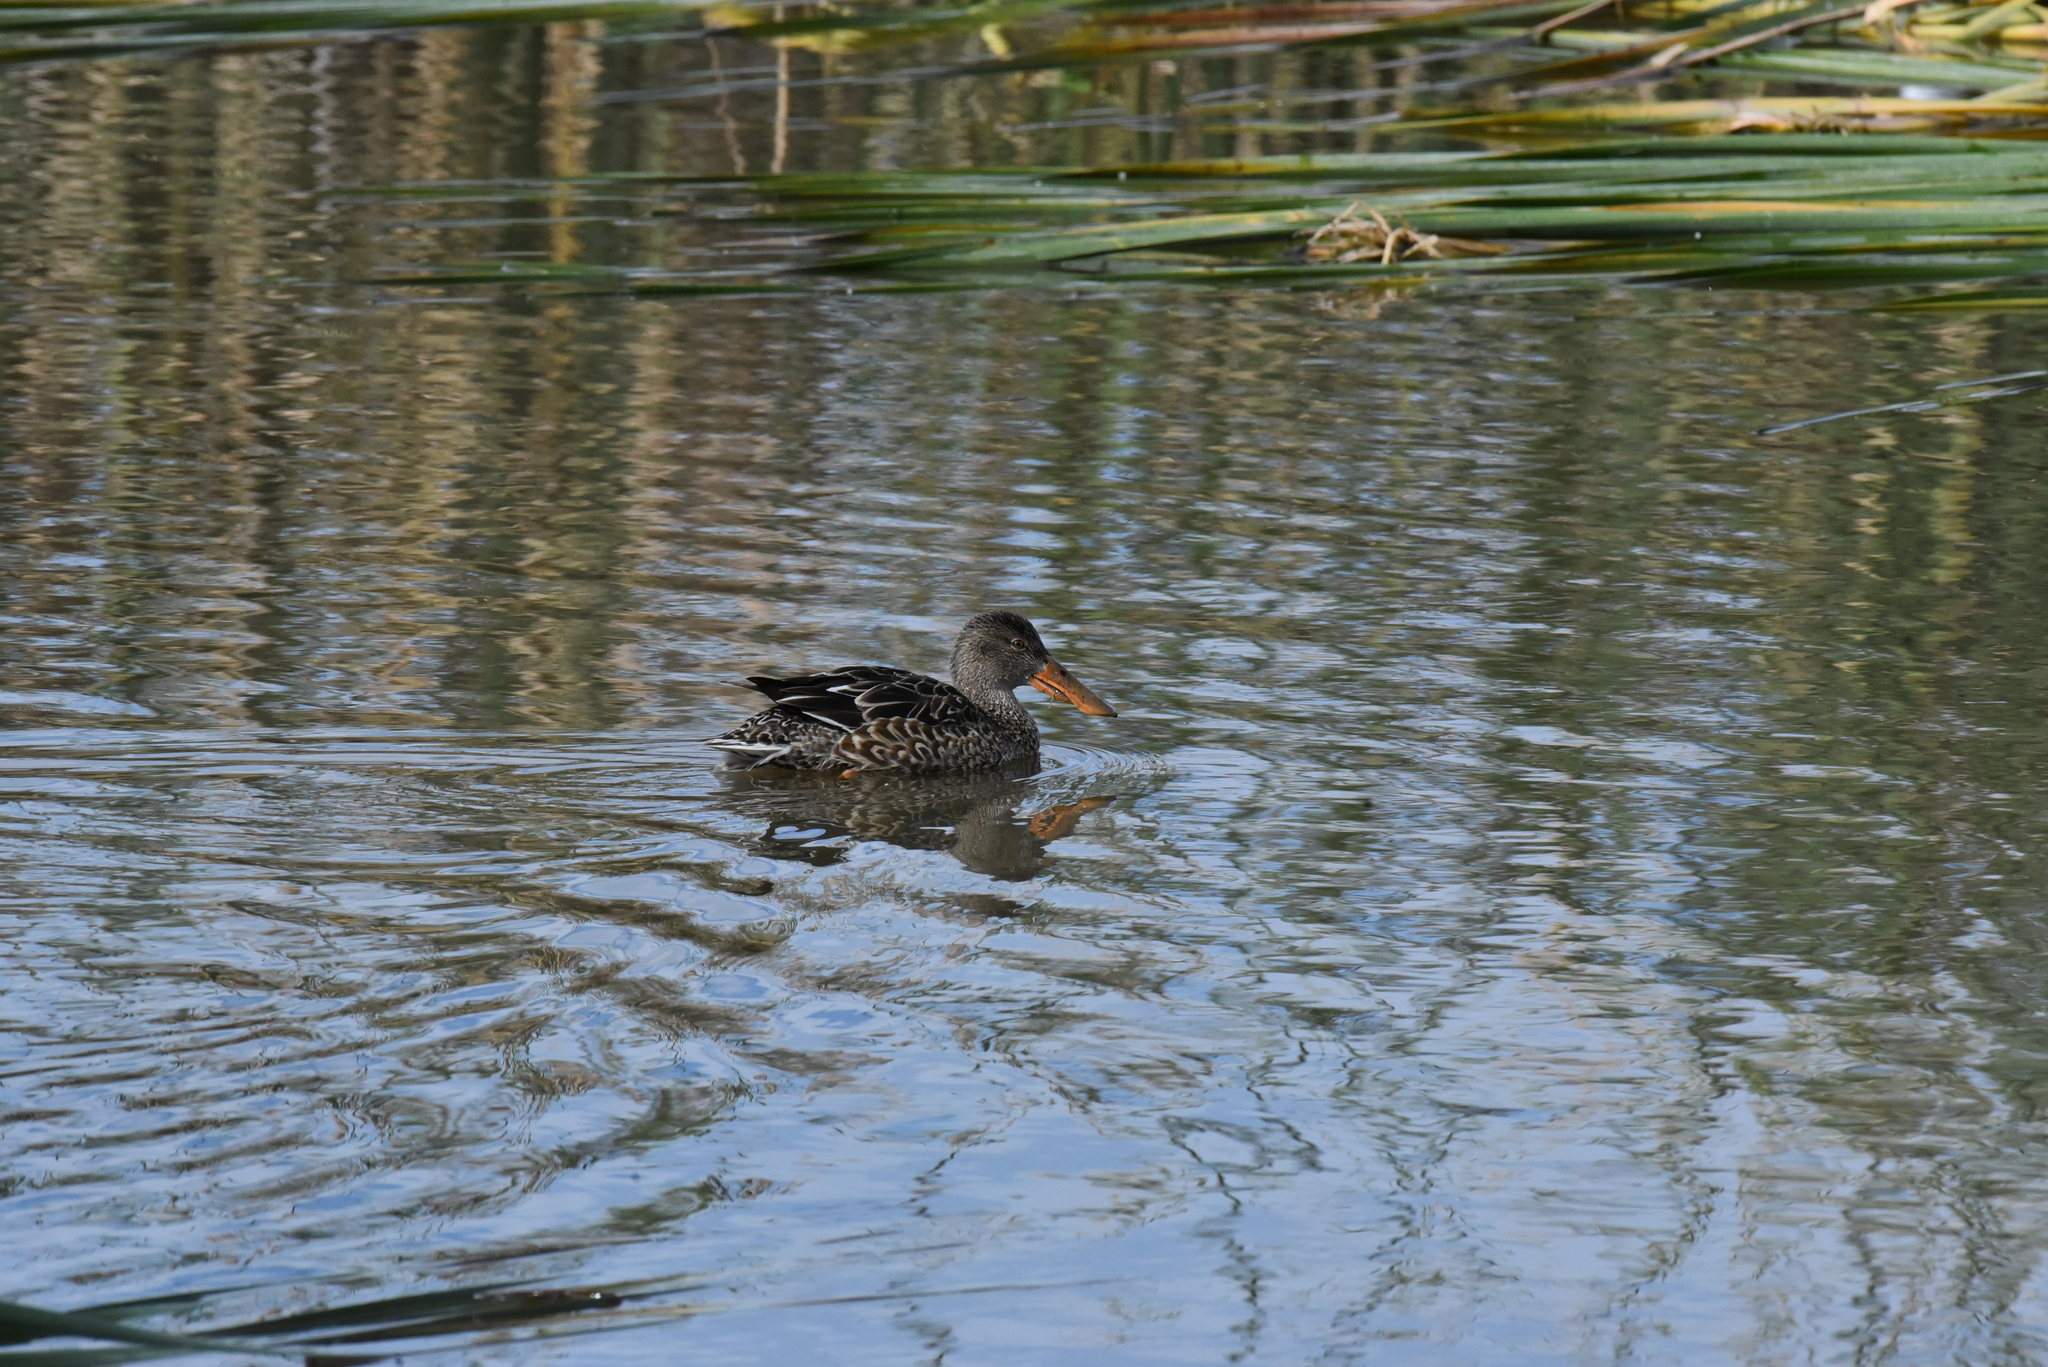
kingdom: Animalia
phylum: Chordata
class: Aves
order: Anseriformes
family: Anatidae
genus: Spatula
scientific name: Spatula clypeata
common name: Northern shoveler
